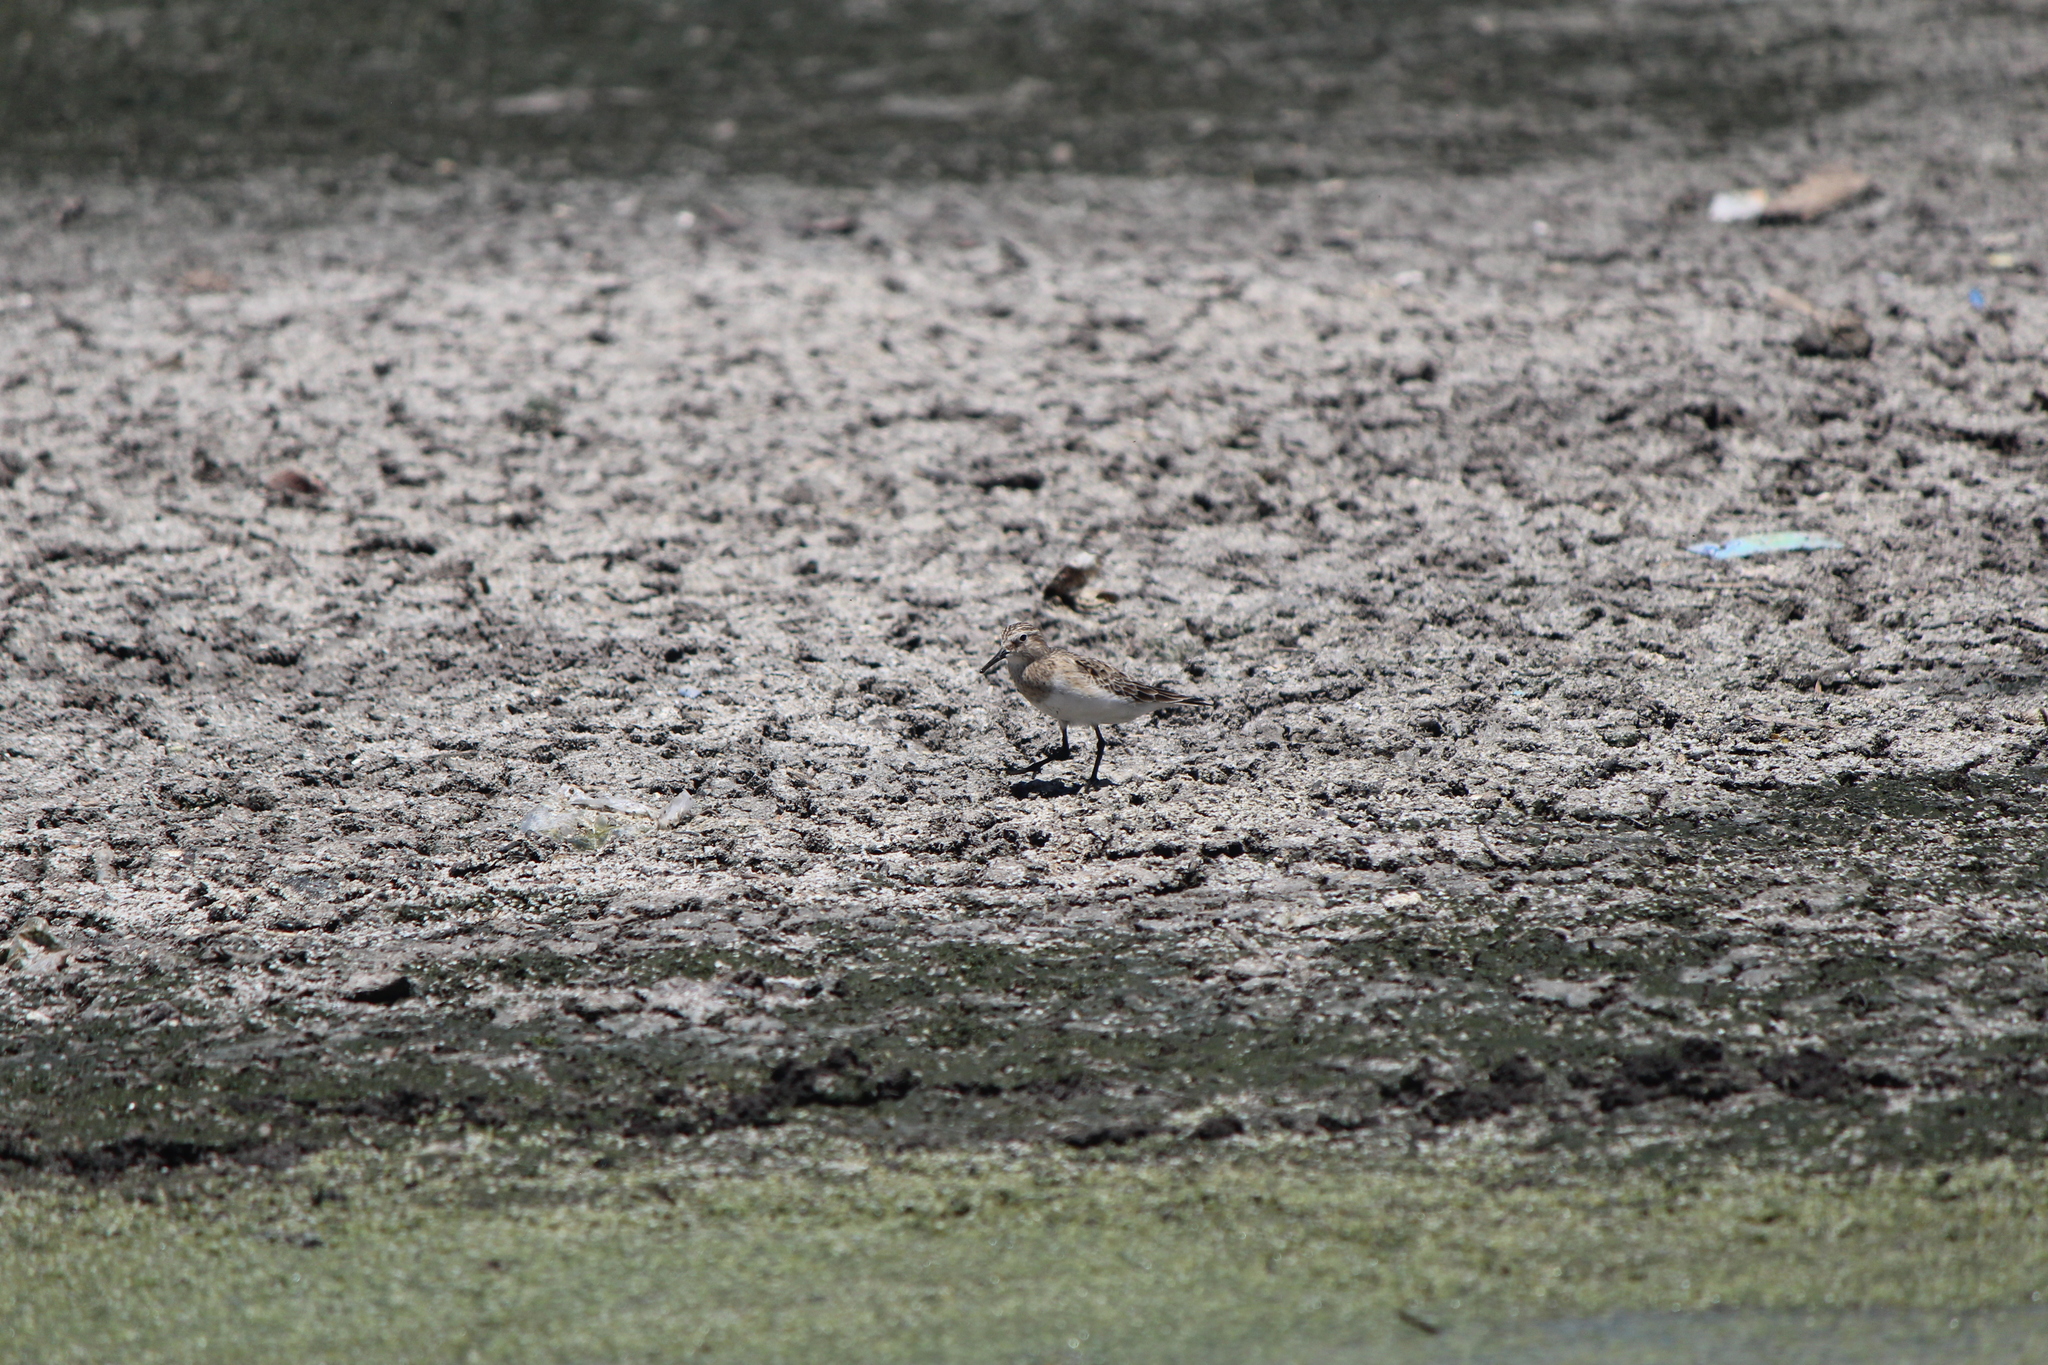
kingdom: Animalia
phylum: Chordata
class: Aves
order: Charadriiformes
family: Scolopacidae
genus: Calidris
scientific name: Calidris bairdii
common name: Baird's sandpiper
